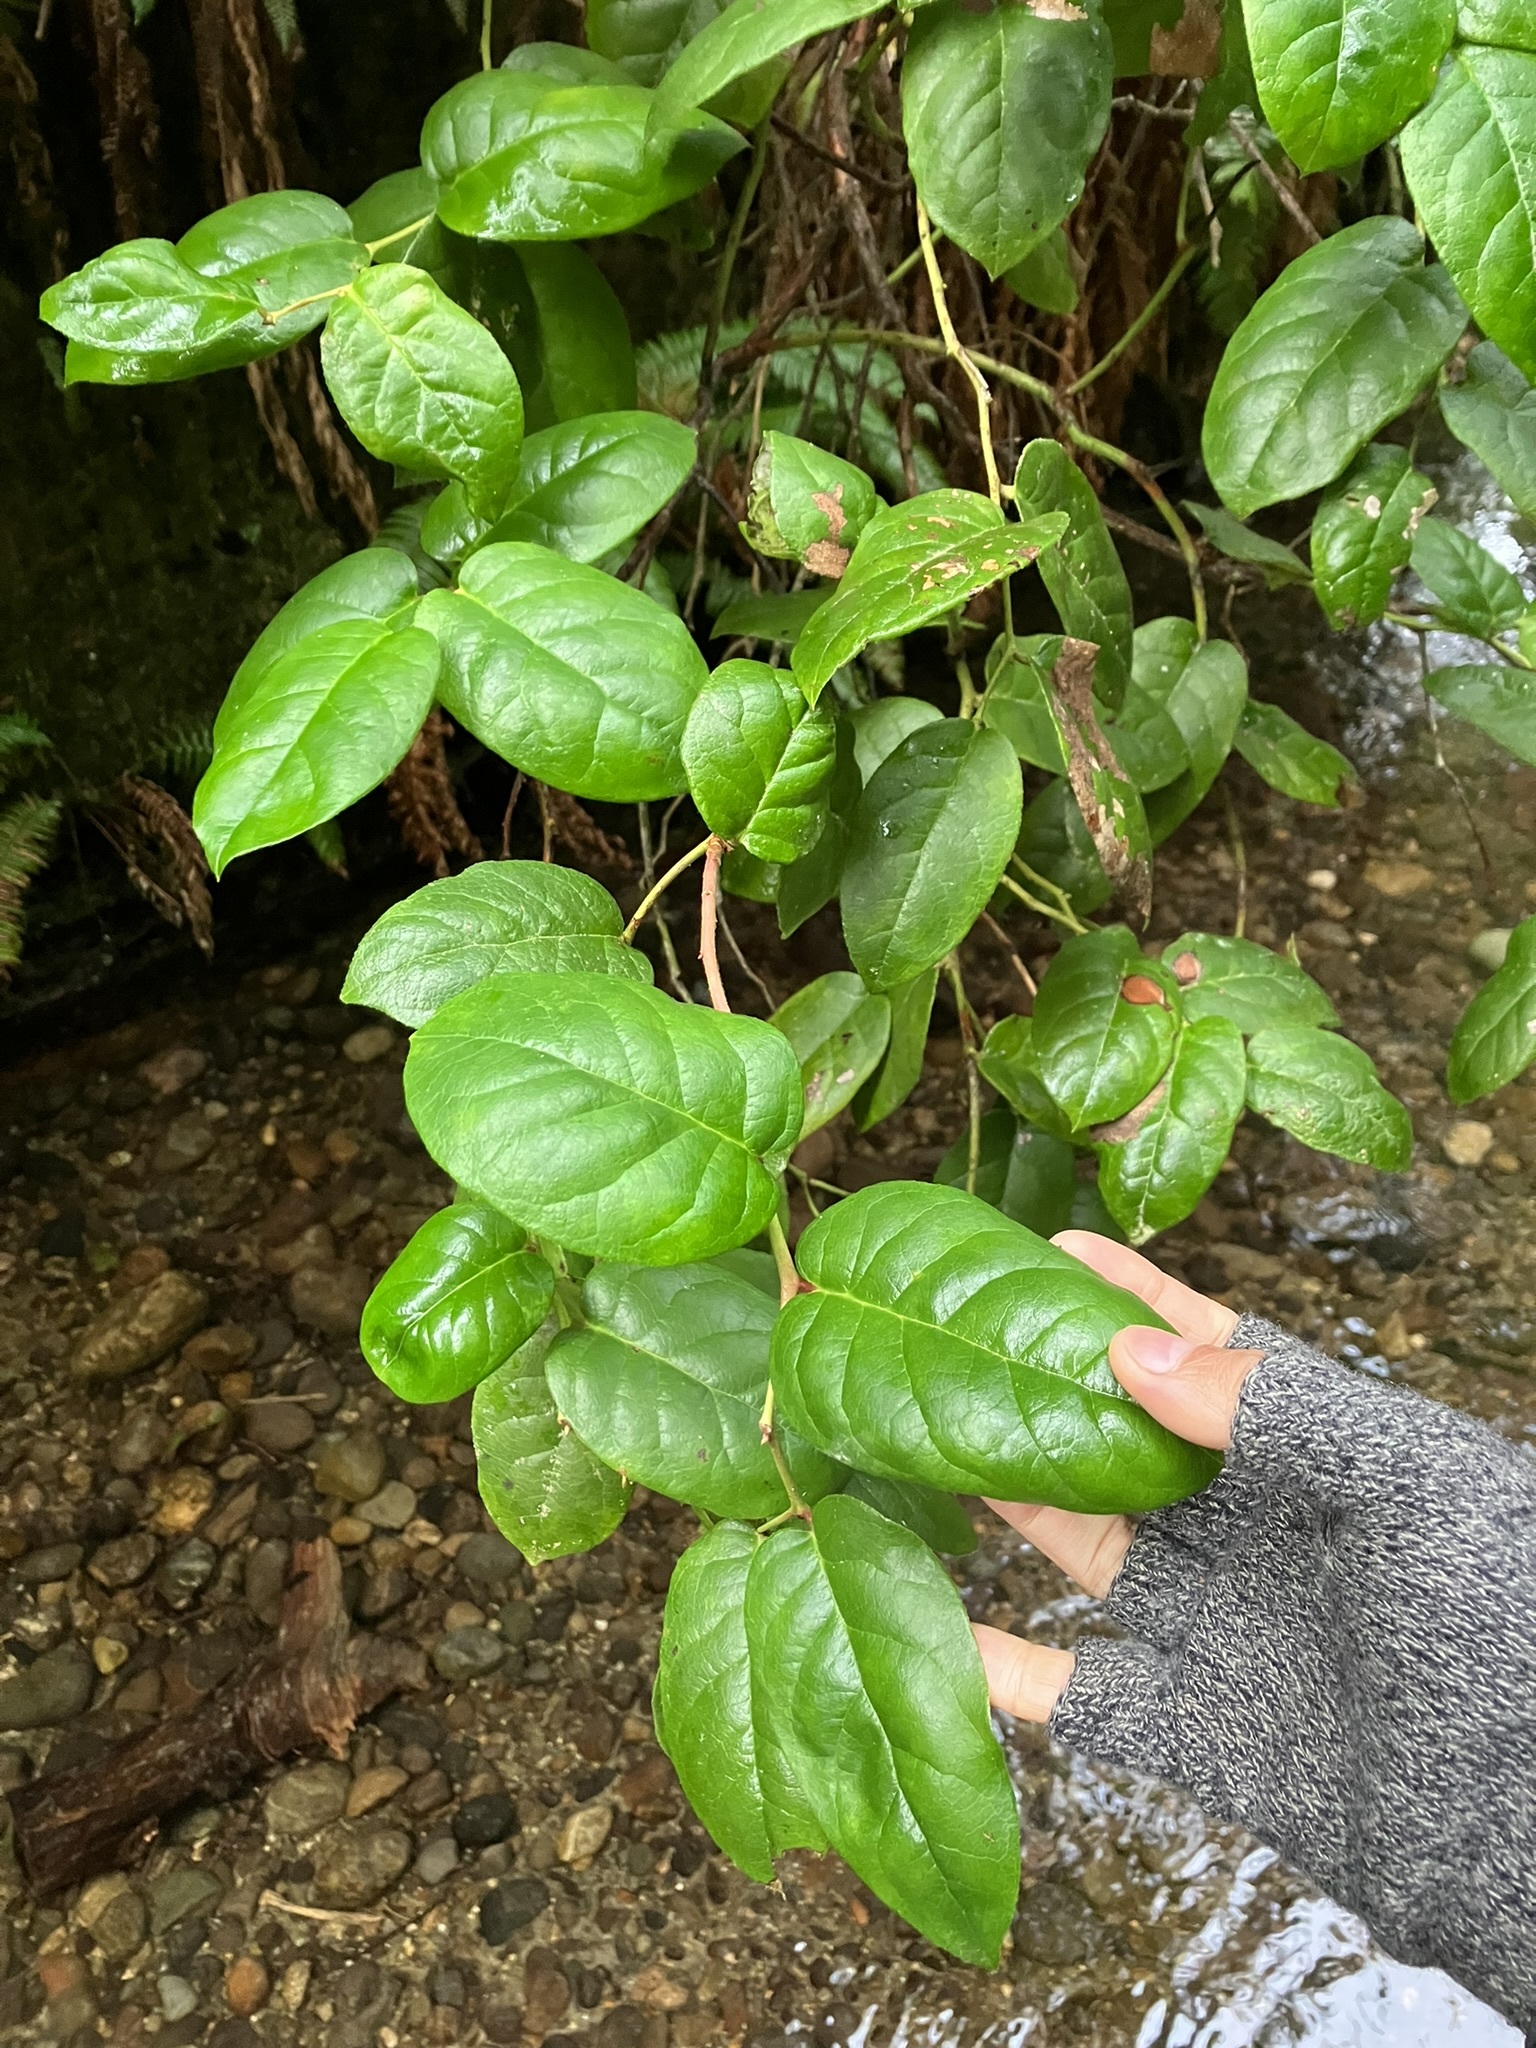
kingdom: Plantae
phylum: Tracheophyta
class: Magnoliopsida
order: Ericales
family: Ericaceae
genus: Gaultheria
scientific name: Gaultheria shallon
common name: Shallon
